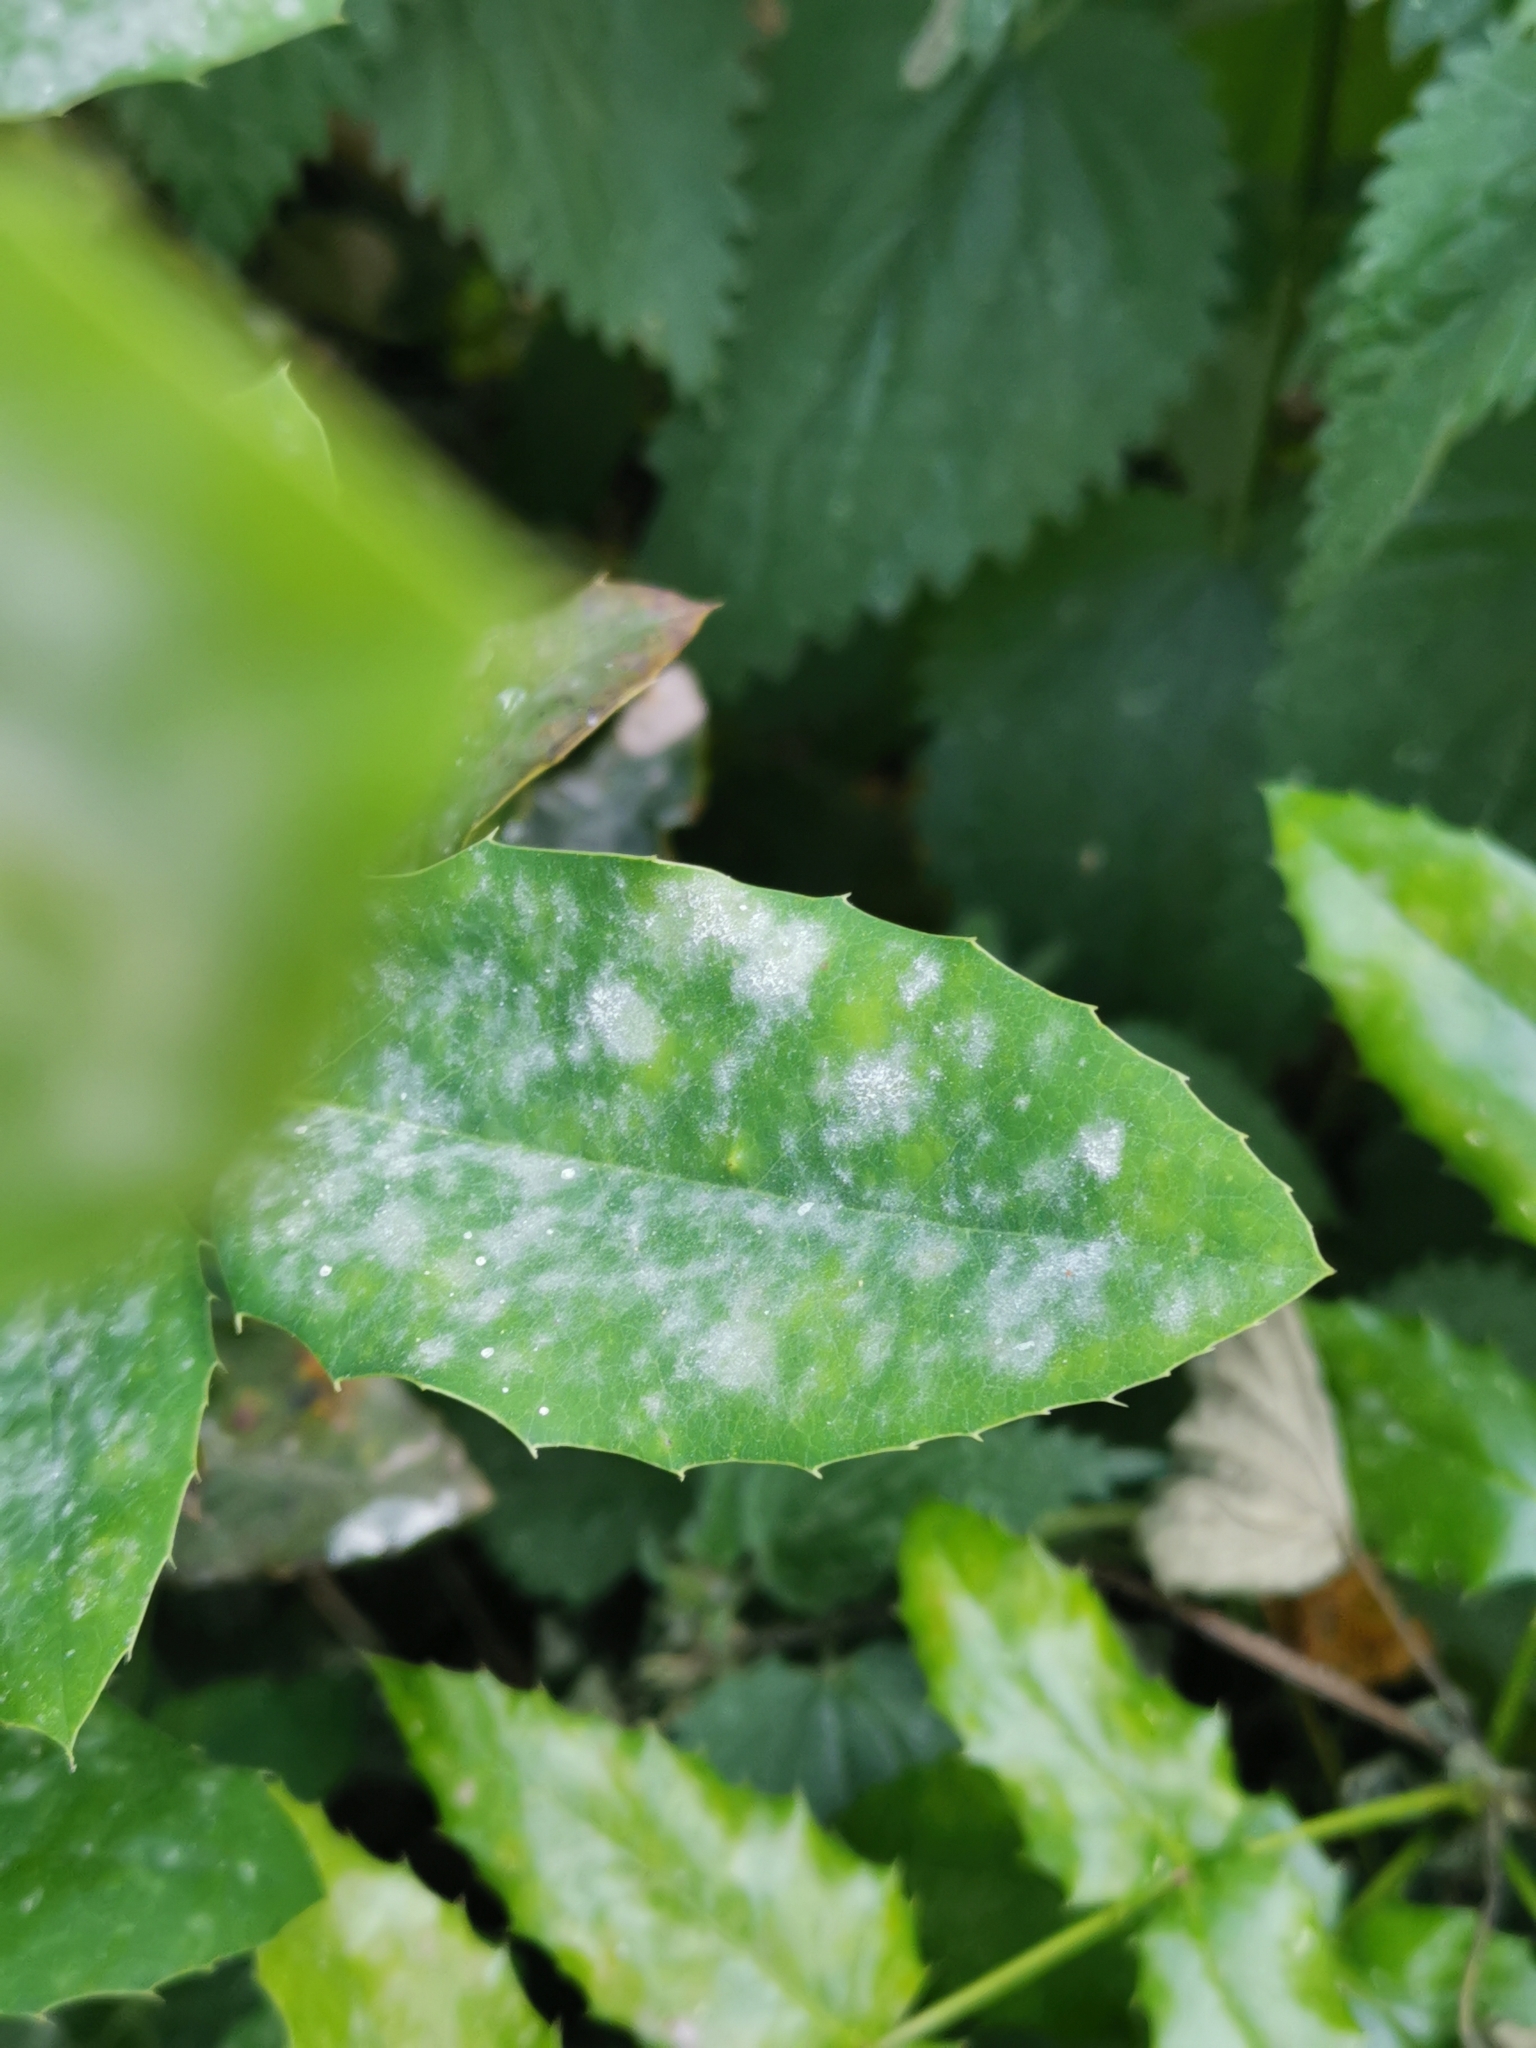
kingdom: Fungi
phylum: Ascomycota
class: Leotiomycetes
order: Helotiales
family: Erysiphaceae
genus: Erysiphe
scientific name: Erysiphe berberidis
